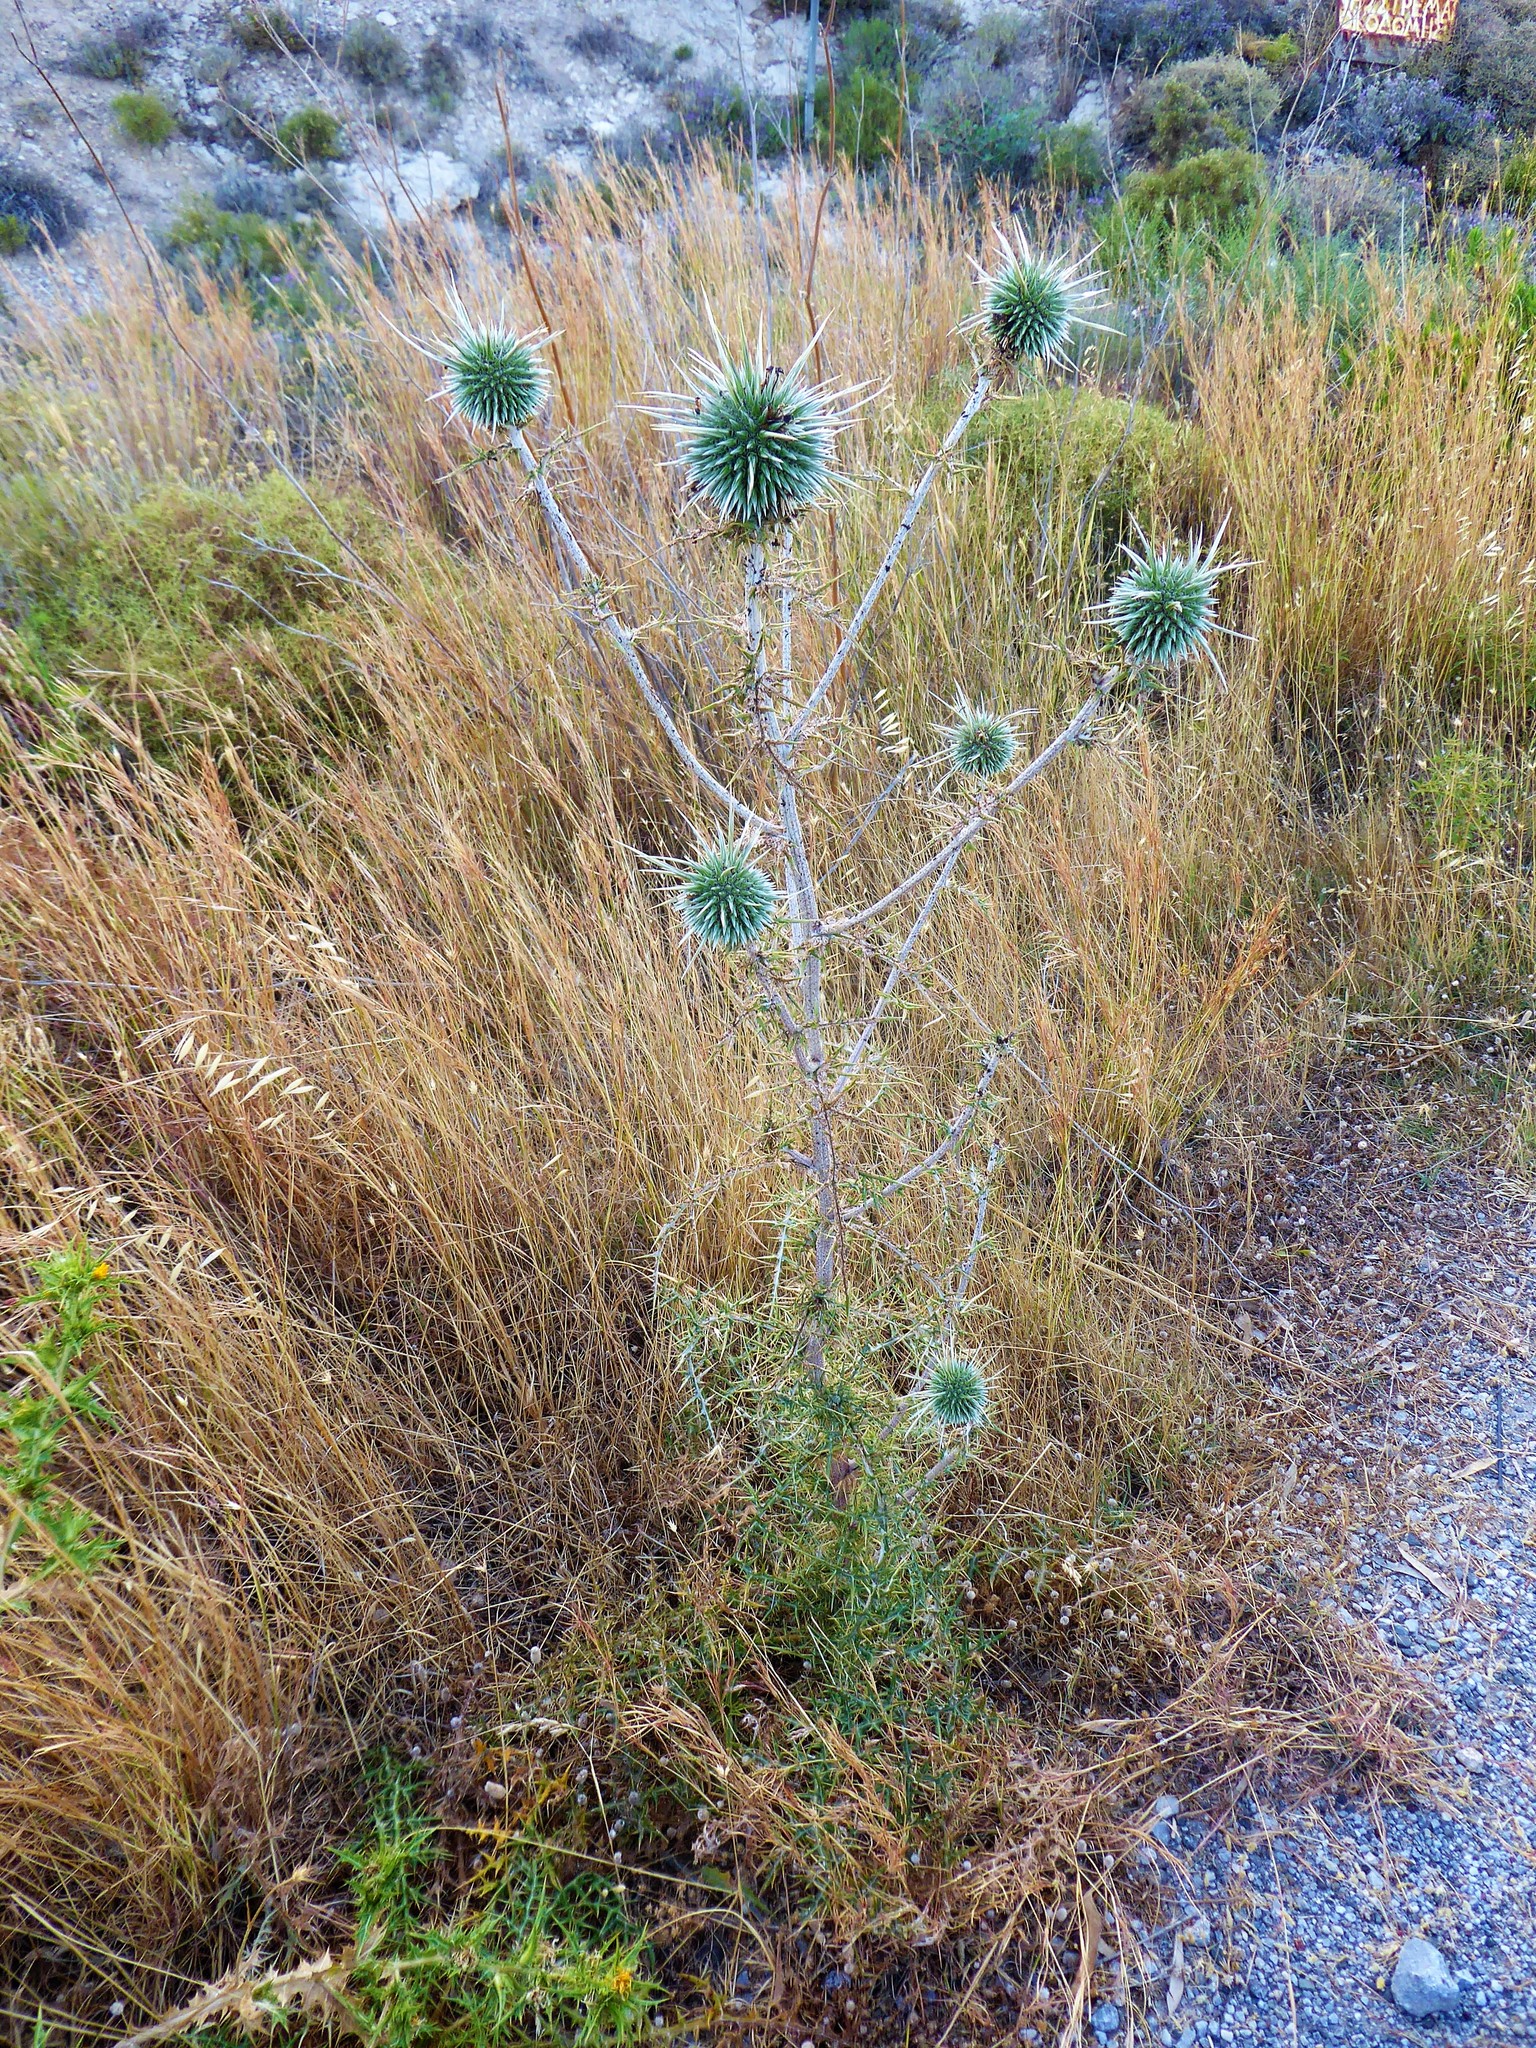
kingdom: Plantae
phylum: Tracheophyta
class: Magnoliopsida
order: Asterales
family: Asteraceae
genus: Echinops
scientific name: Echinops spinosissimus
